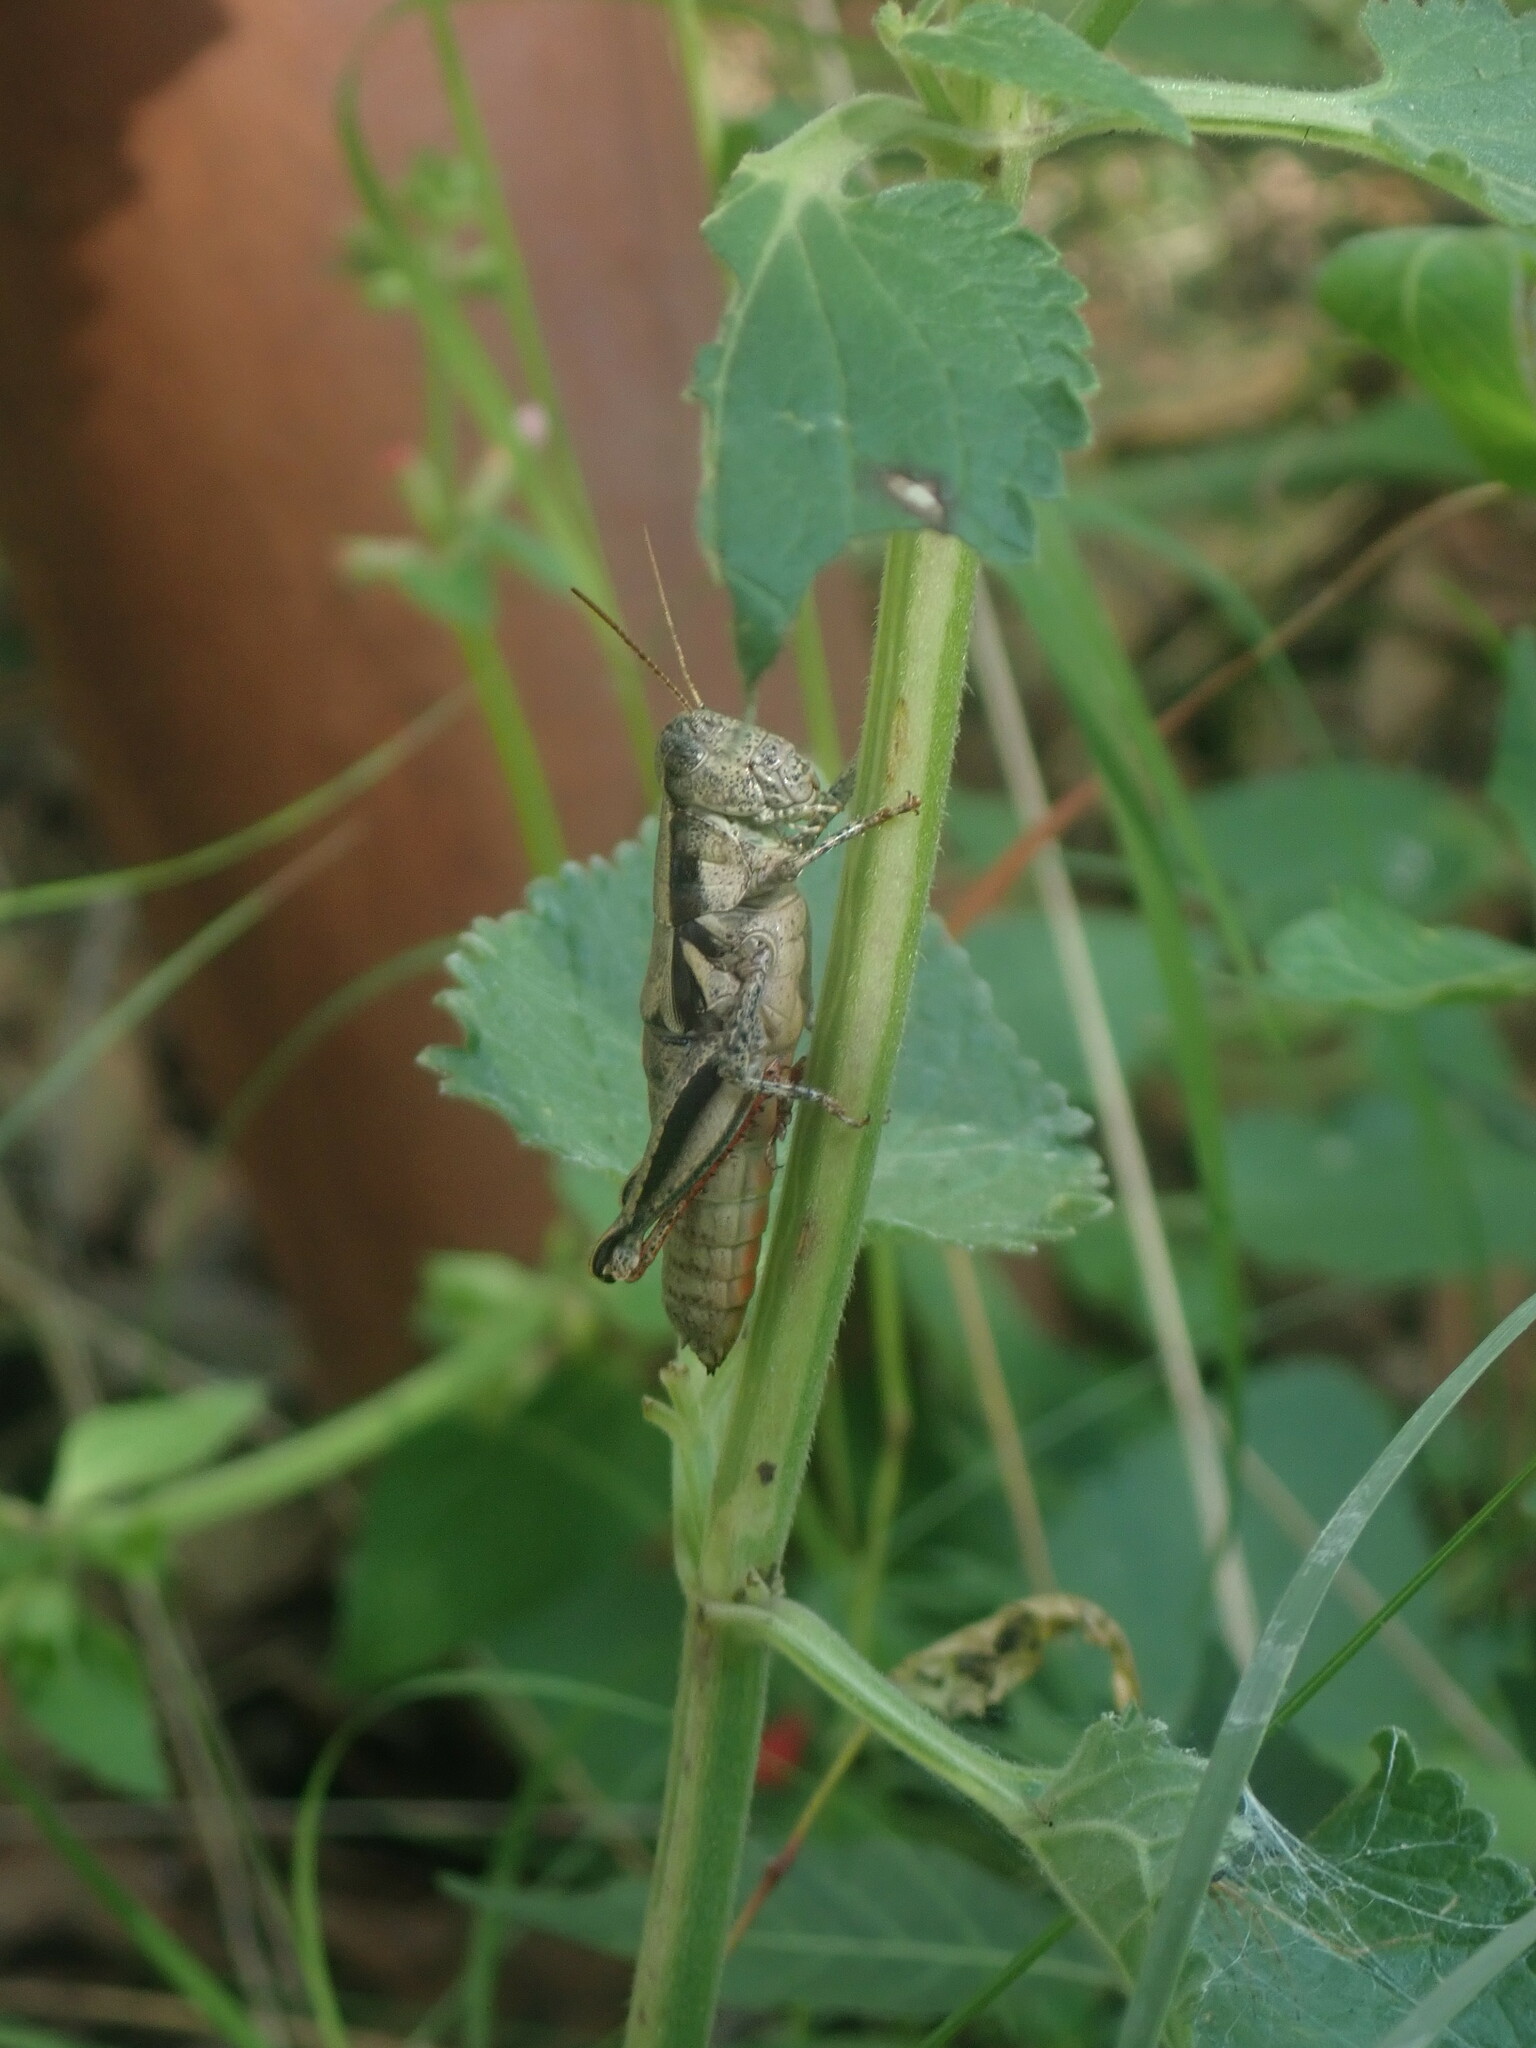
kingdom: Animalia
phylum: Arthropoda
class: Insecta
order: Orthoptera
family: Acrididae
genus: Conalcaea
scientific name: Conalcaea huachucana
